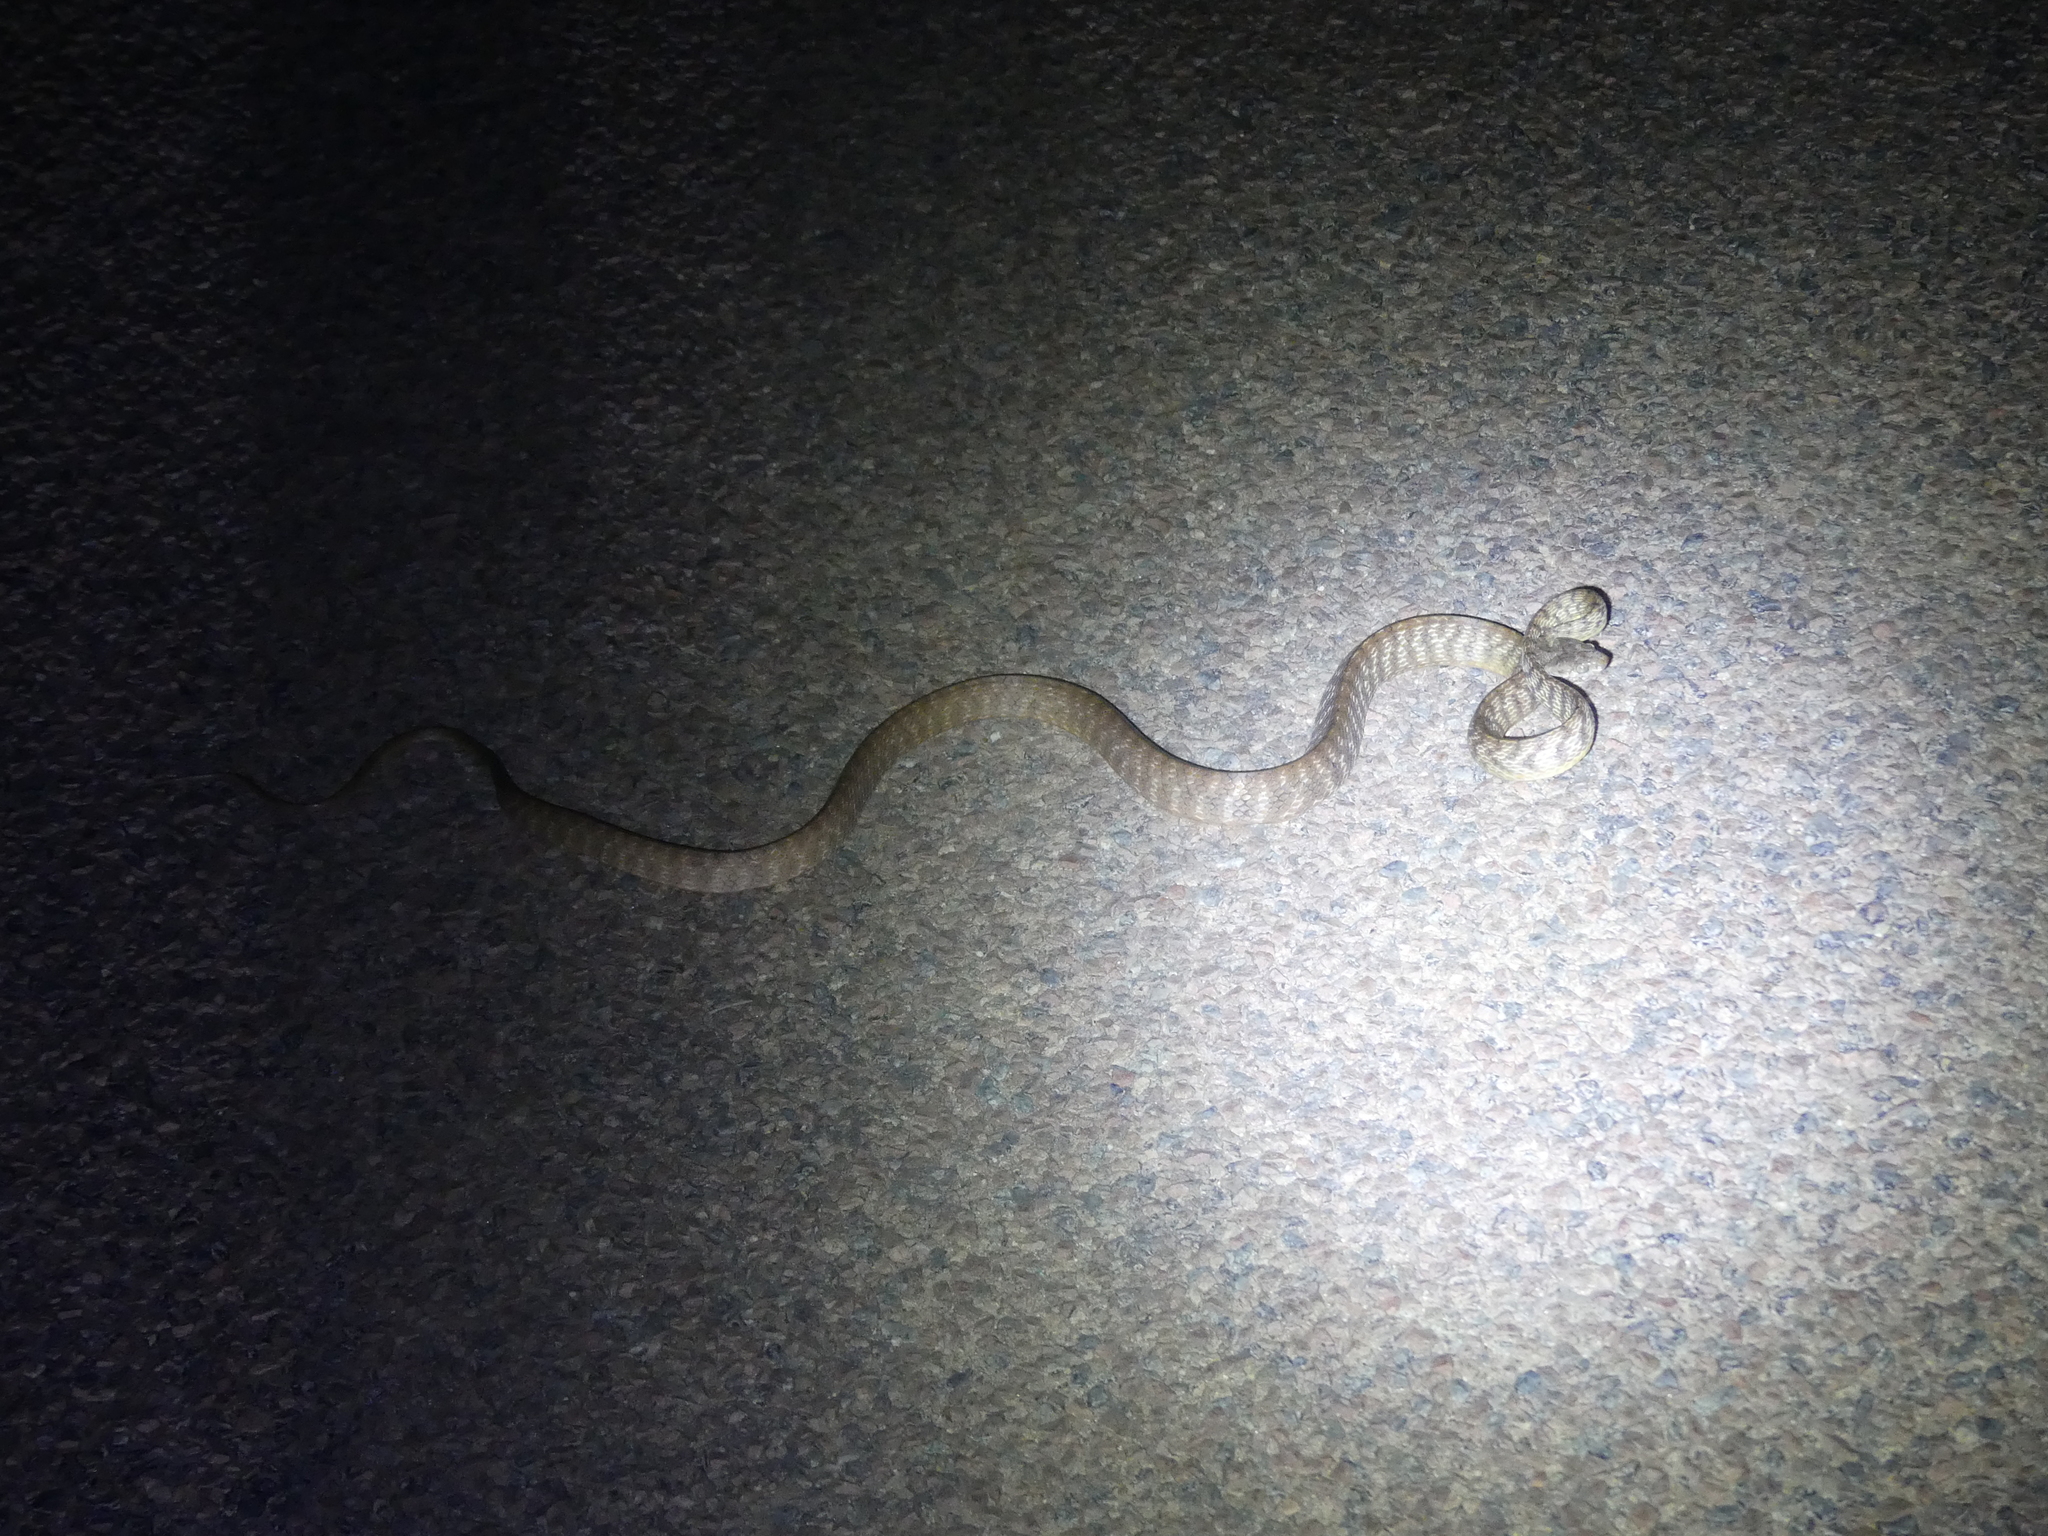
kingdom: Animalia
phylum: Chordata
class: Squamata
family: Colubridae
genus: Boiga
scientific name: Boiga irregularis
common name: Brown tree snake
